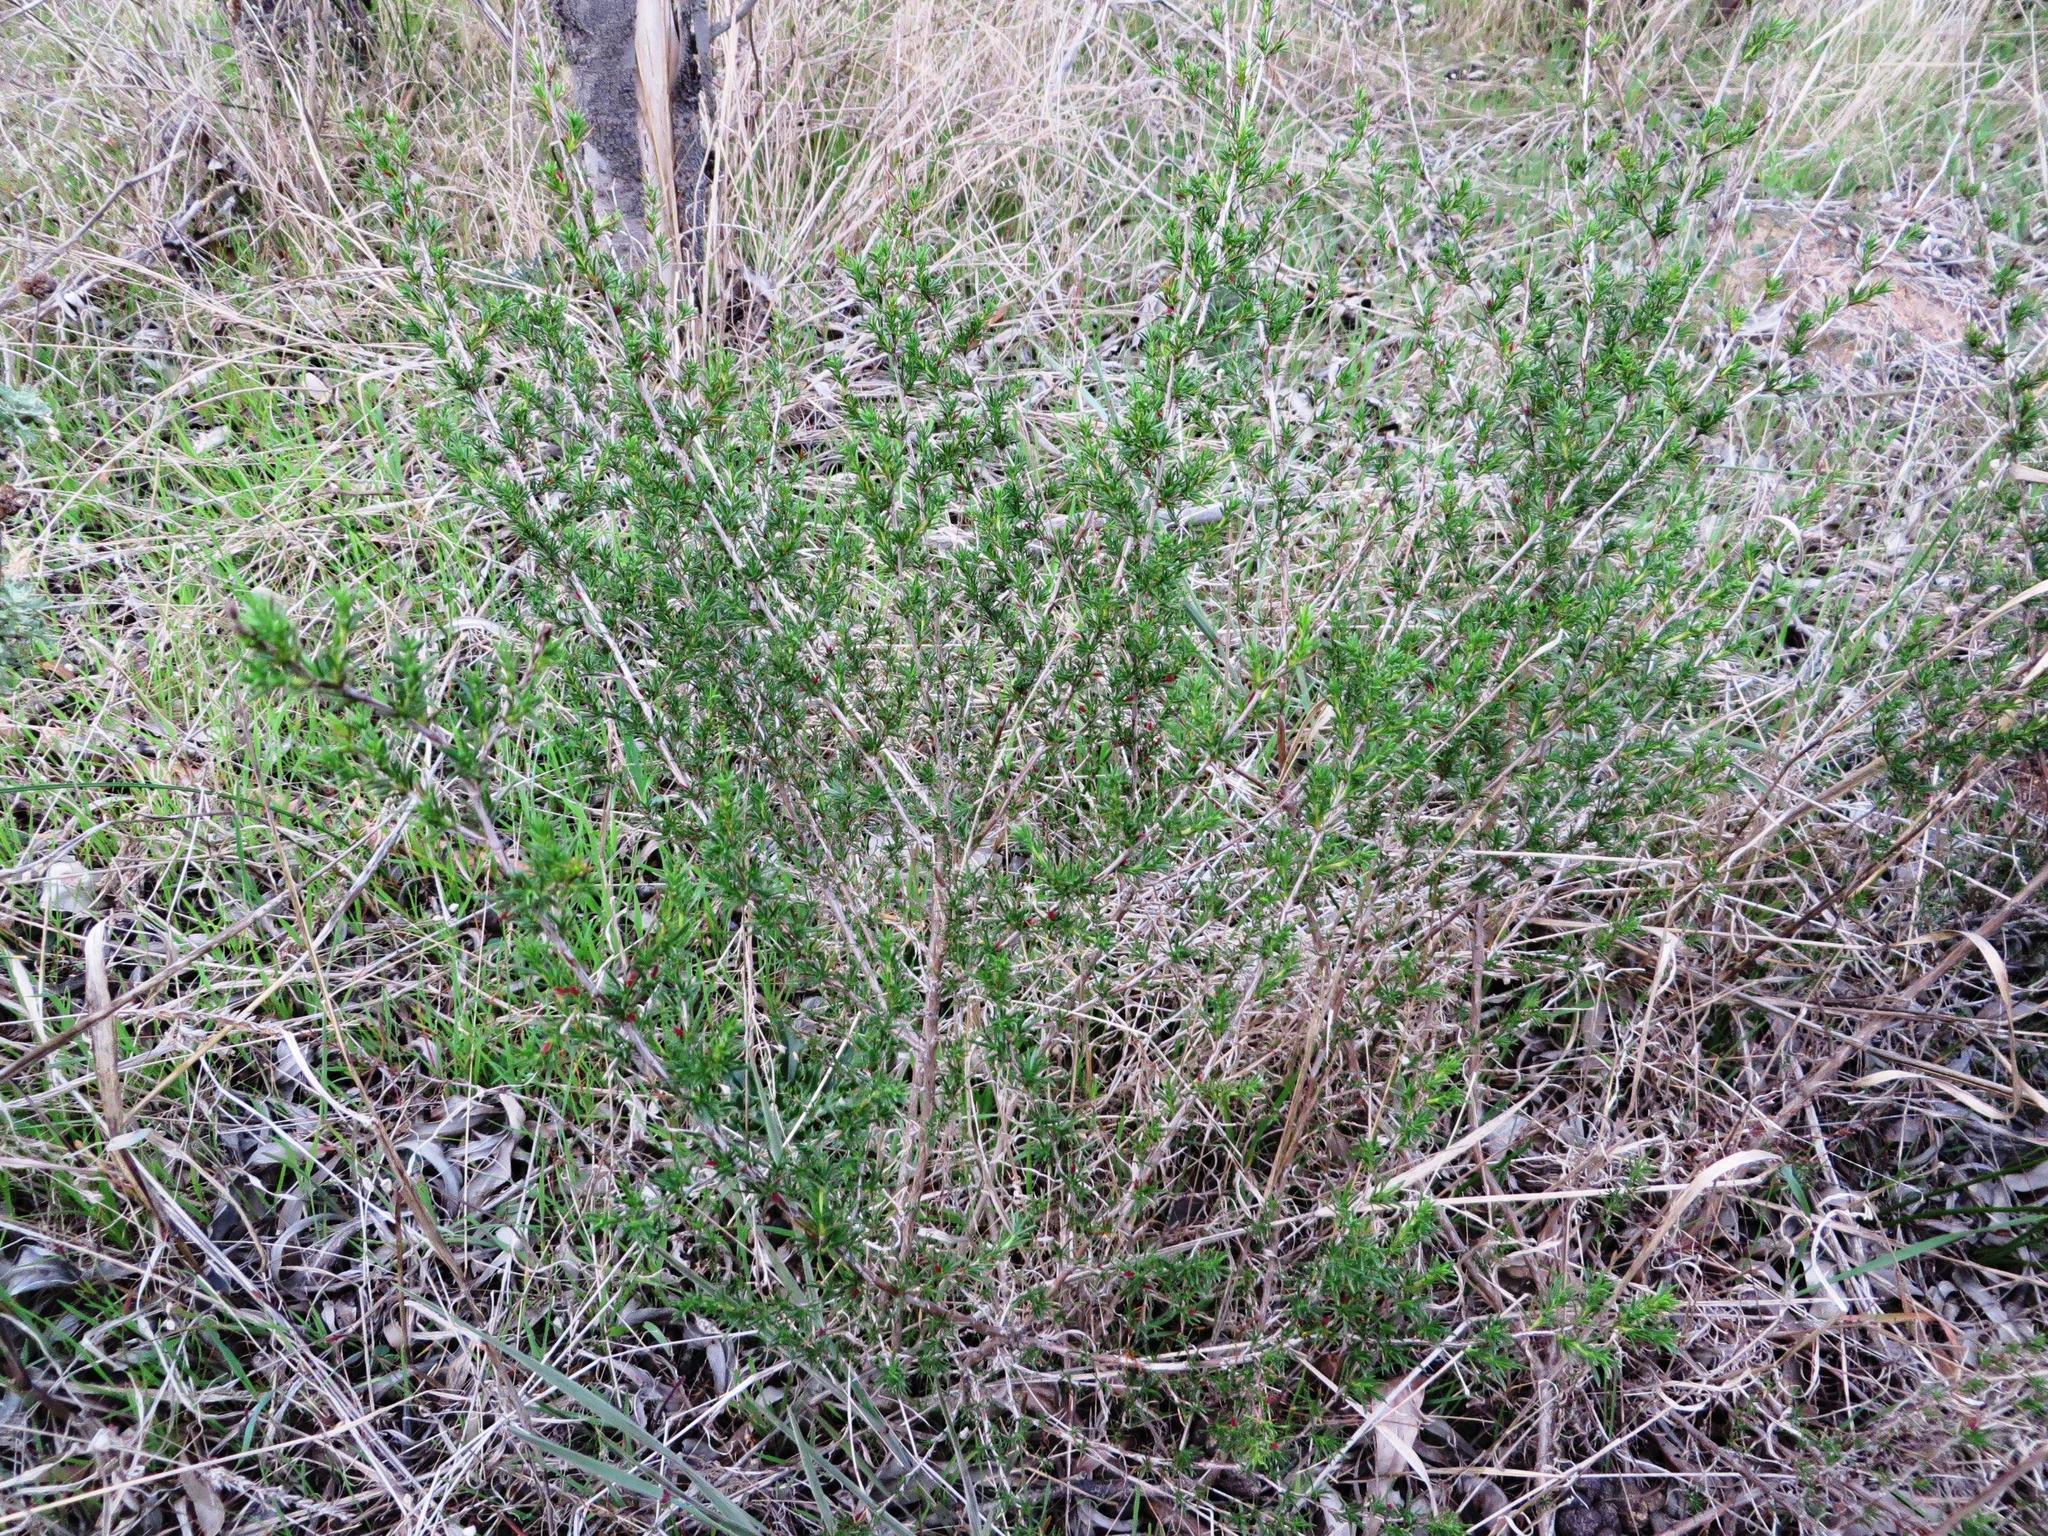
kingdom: Plantae
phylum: Tracheophyta
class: Magnoliopsida
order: Rosales
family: Rosaceae
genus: Cliffortia
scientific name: Cliffortia juniperina
